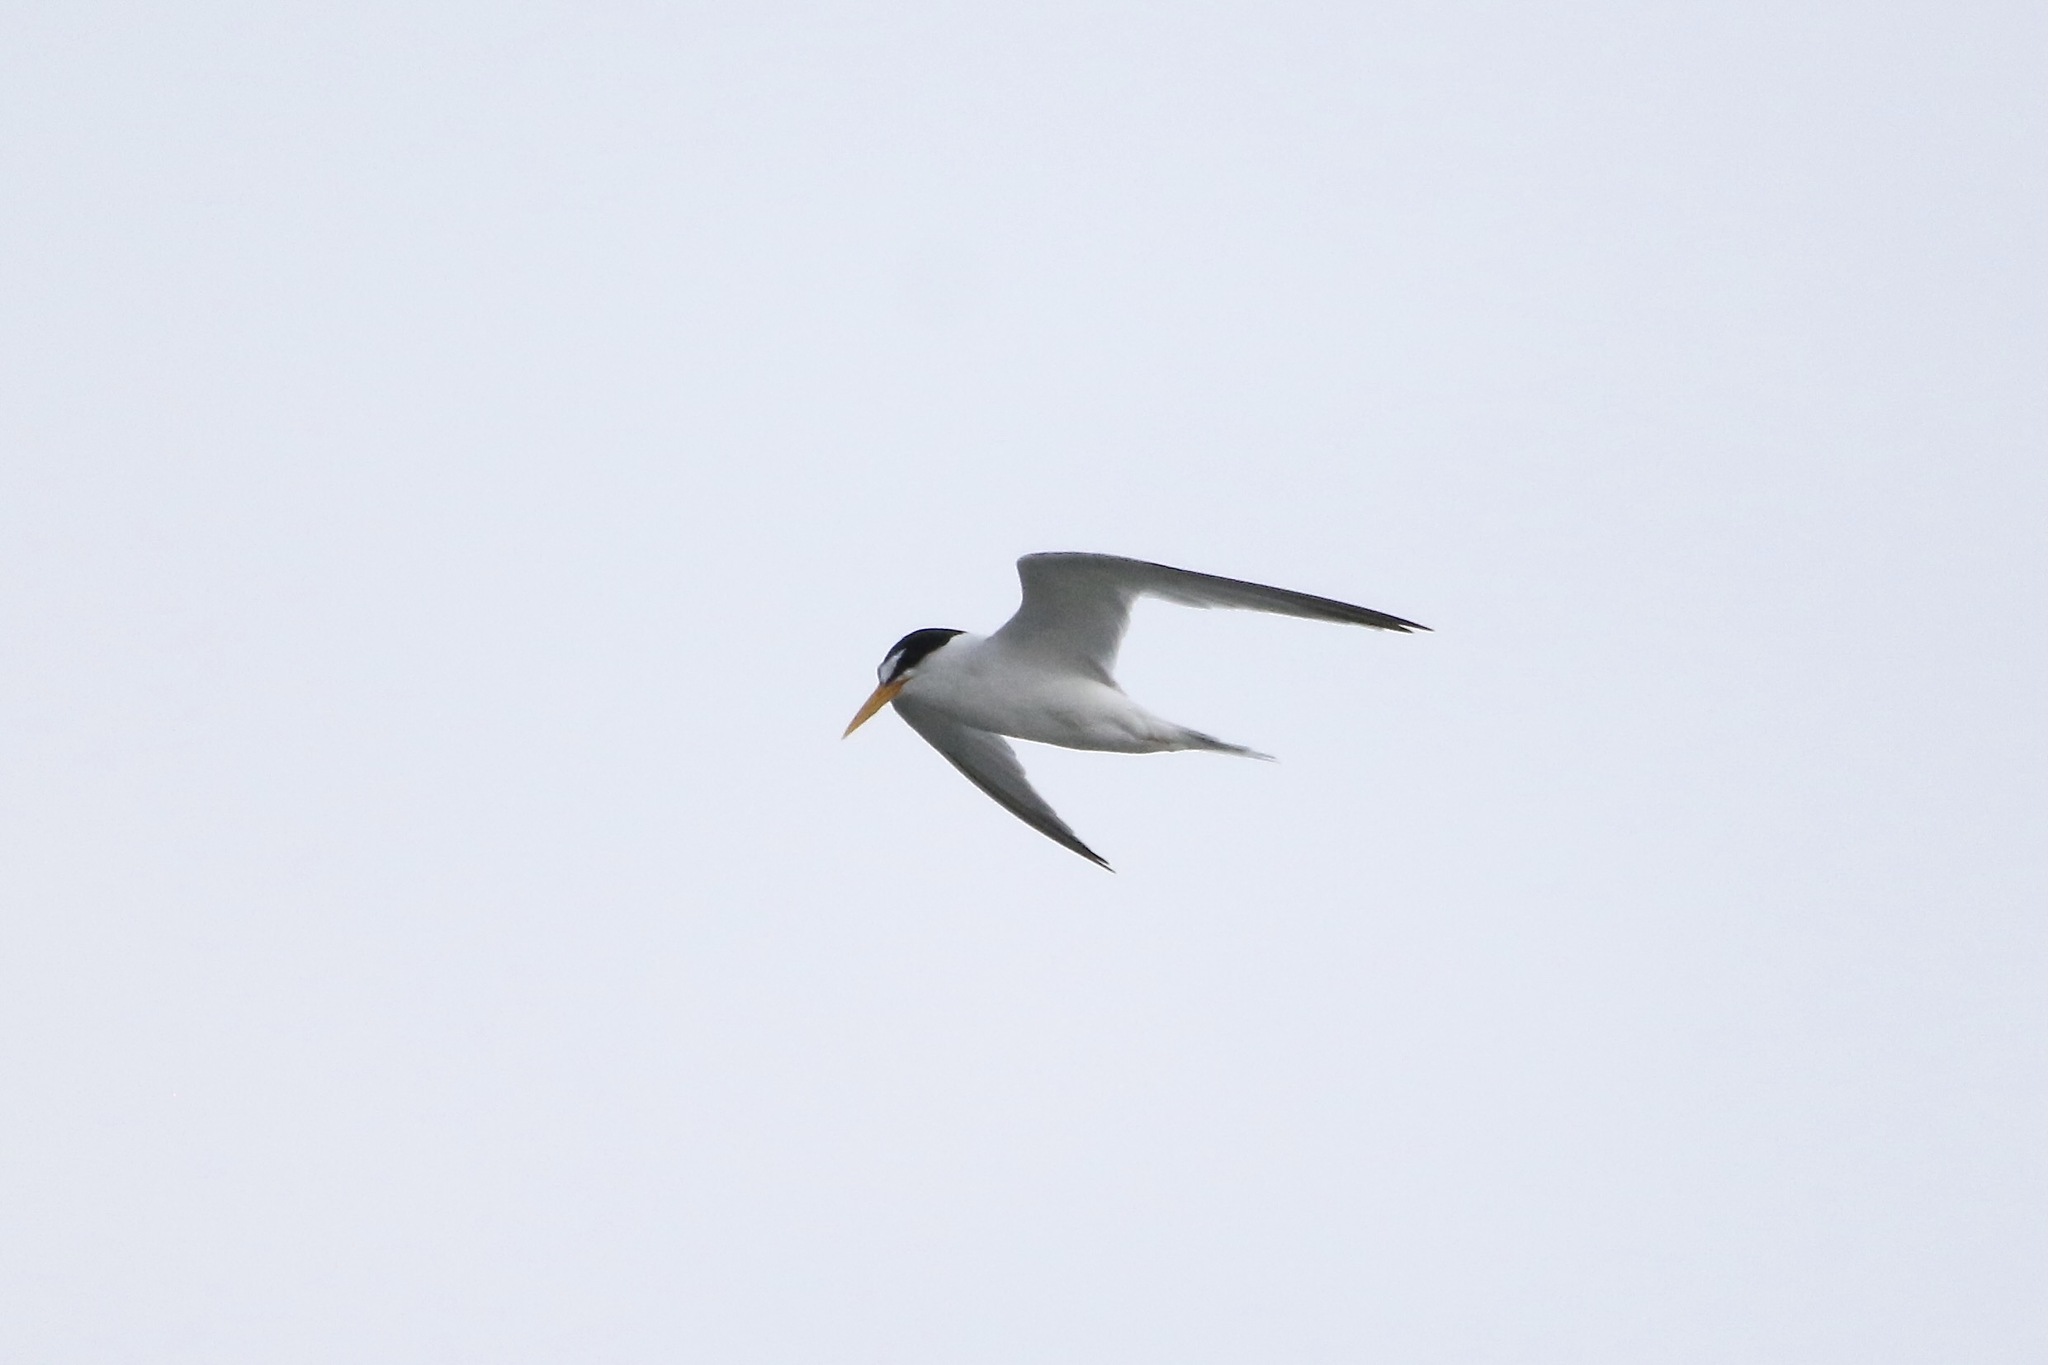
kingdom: Animalia
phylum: Chordata
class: Aves
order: Charadriiformes
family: Laridae
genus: Sternula
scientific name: Sternula antillarum
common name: Least tern
